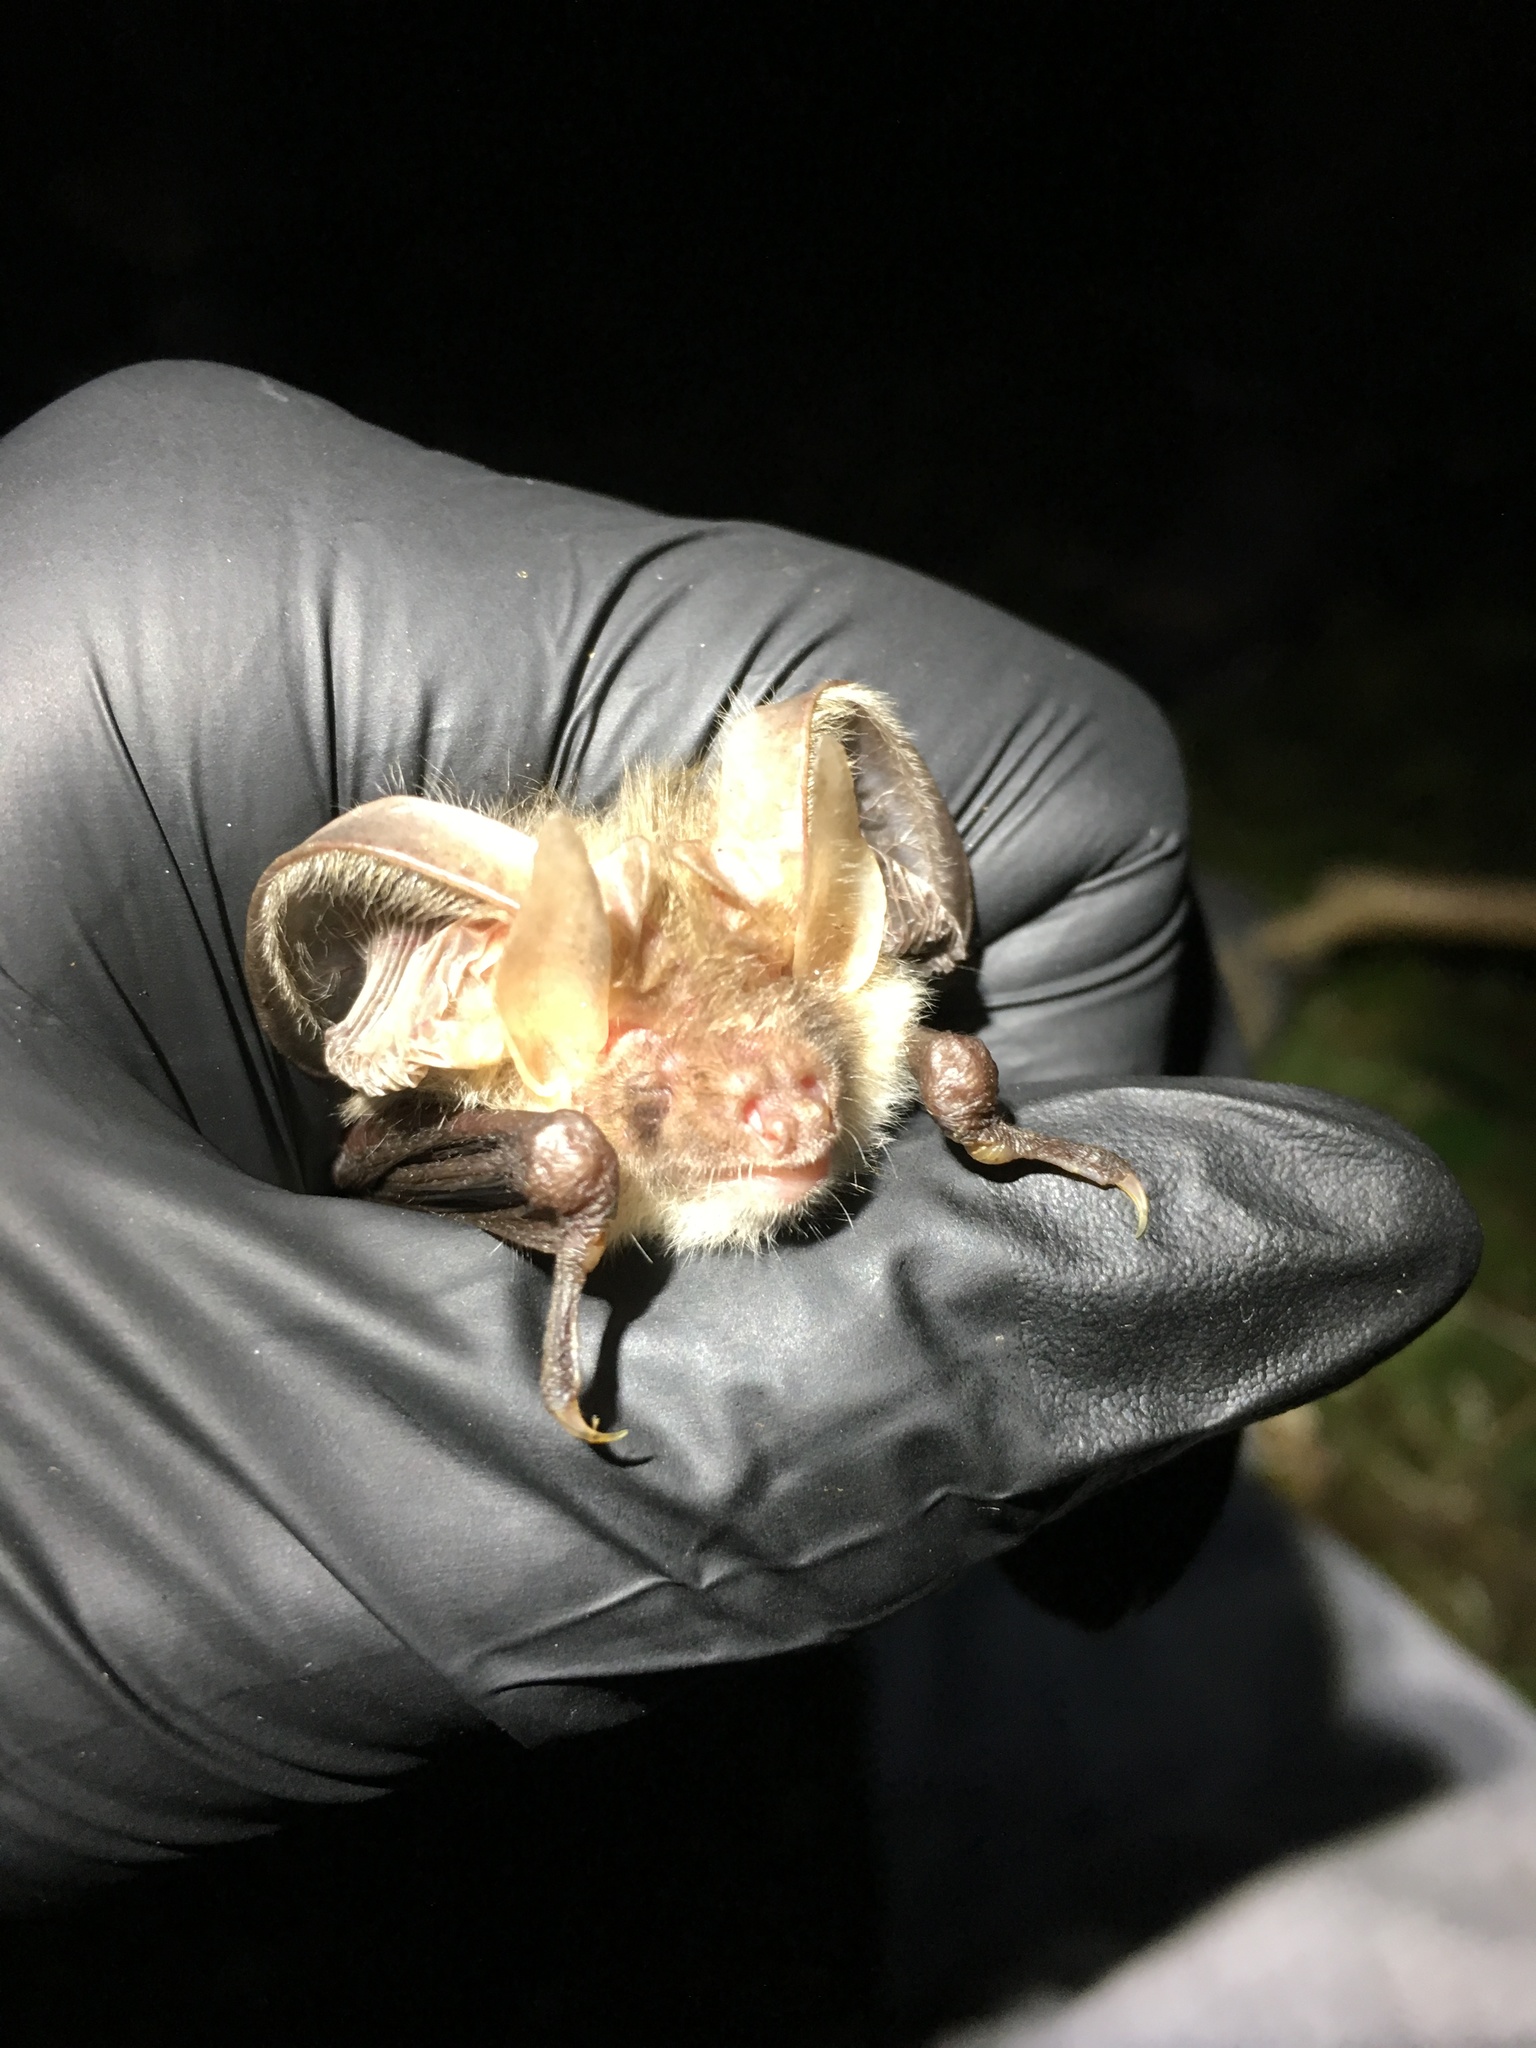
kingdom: Animalia
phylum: Chordata
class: Mammalia
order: Chiroptera
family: Vespertilionidae
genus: Plecotus
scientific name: Plecotus auritus
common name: Brown long-eared bat
